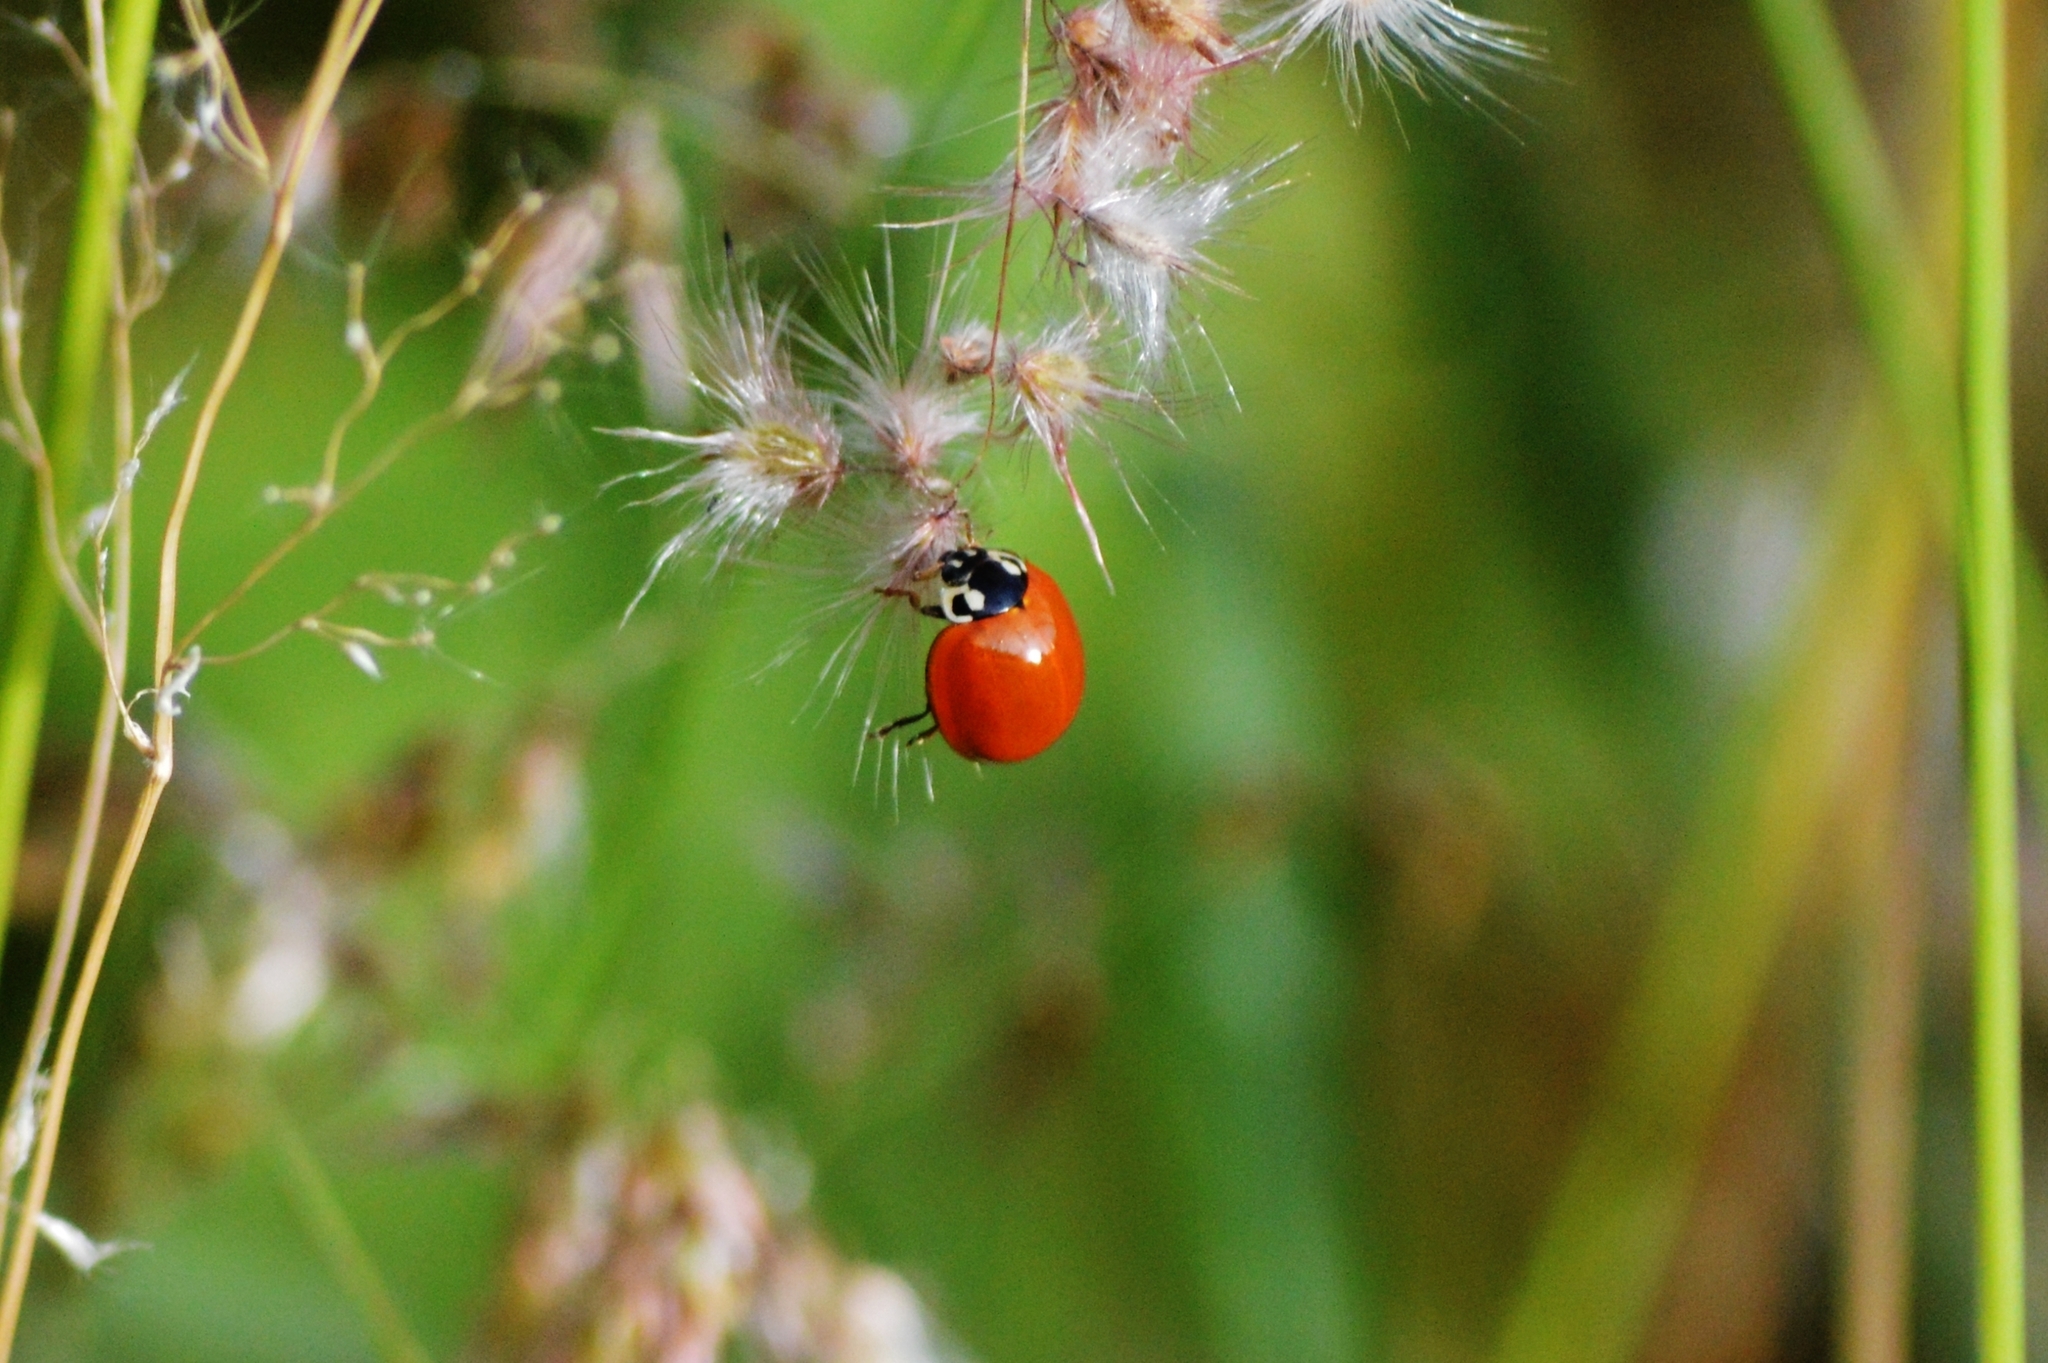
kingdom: Animalia
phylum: Arthropoda
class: Insecta
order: Coleoptera
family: Coccinellidae
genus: Cycloneda
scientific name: Cycloneda sanguinea
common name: Ladybird beetle
